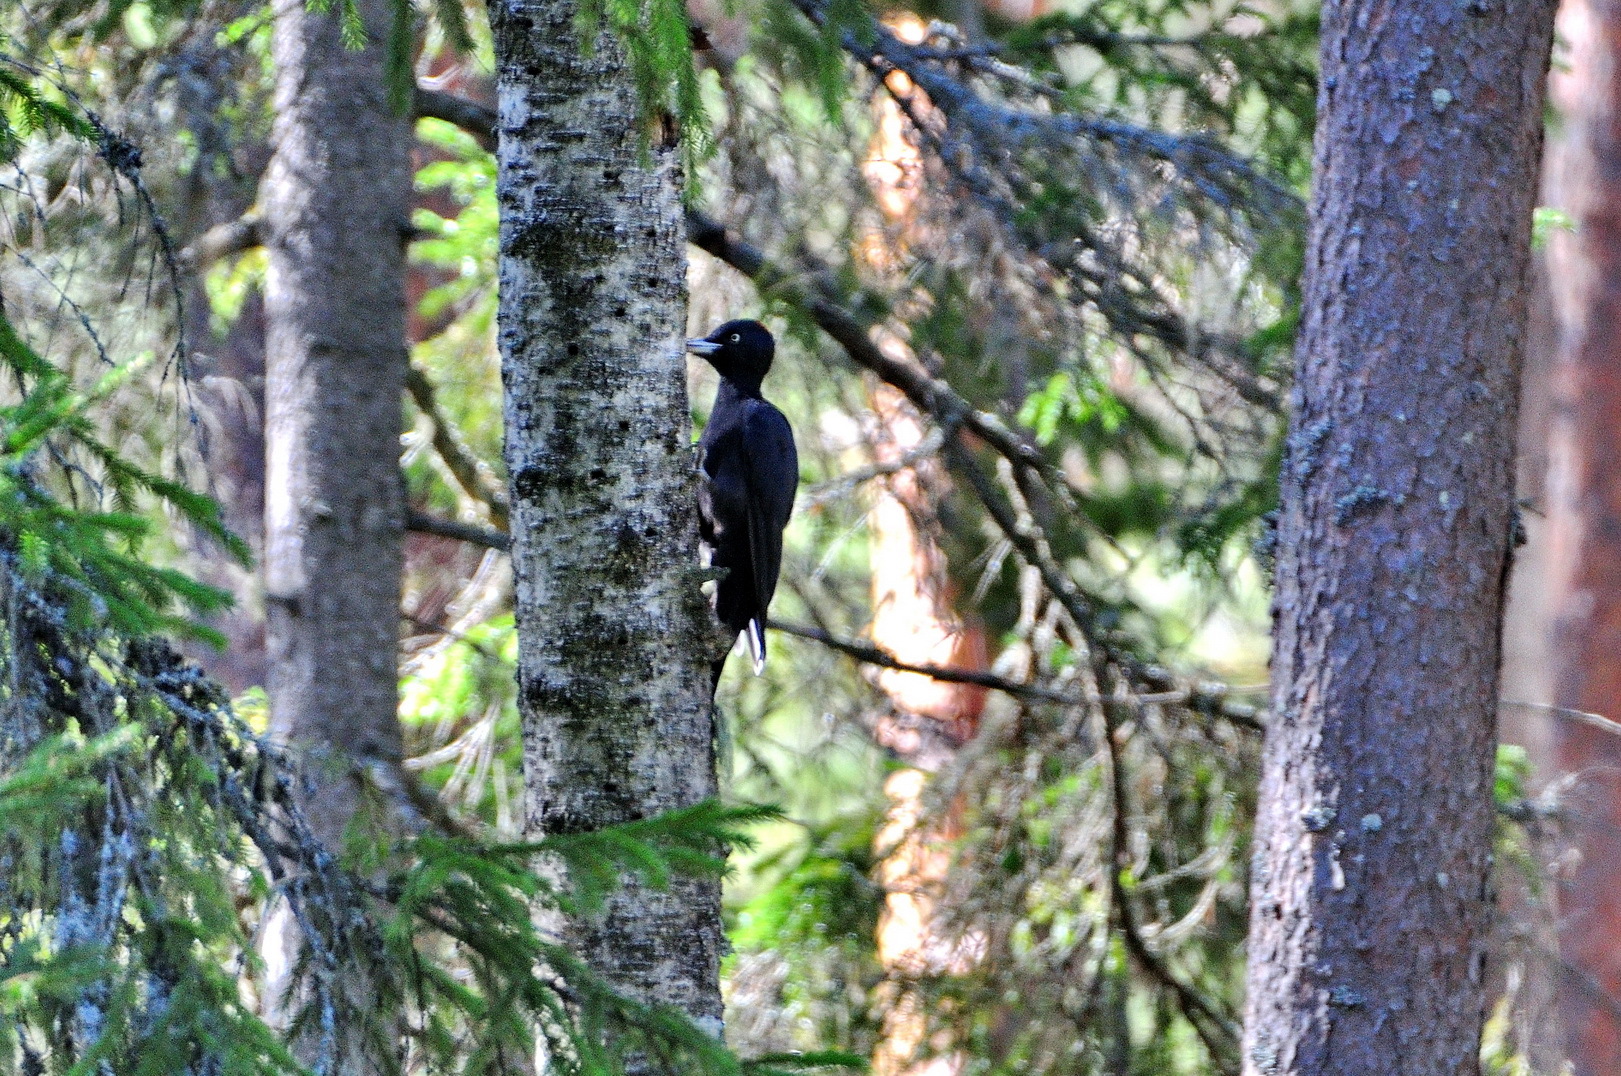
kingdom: Animalia
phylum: Chordata
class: Aves
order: Piciformes
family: Picidae
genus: Dryocopus
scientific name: Dryocopus martius
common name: Black woodpecker
